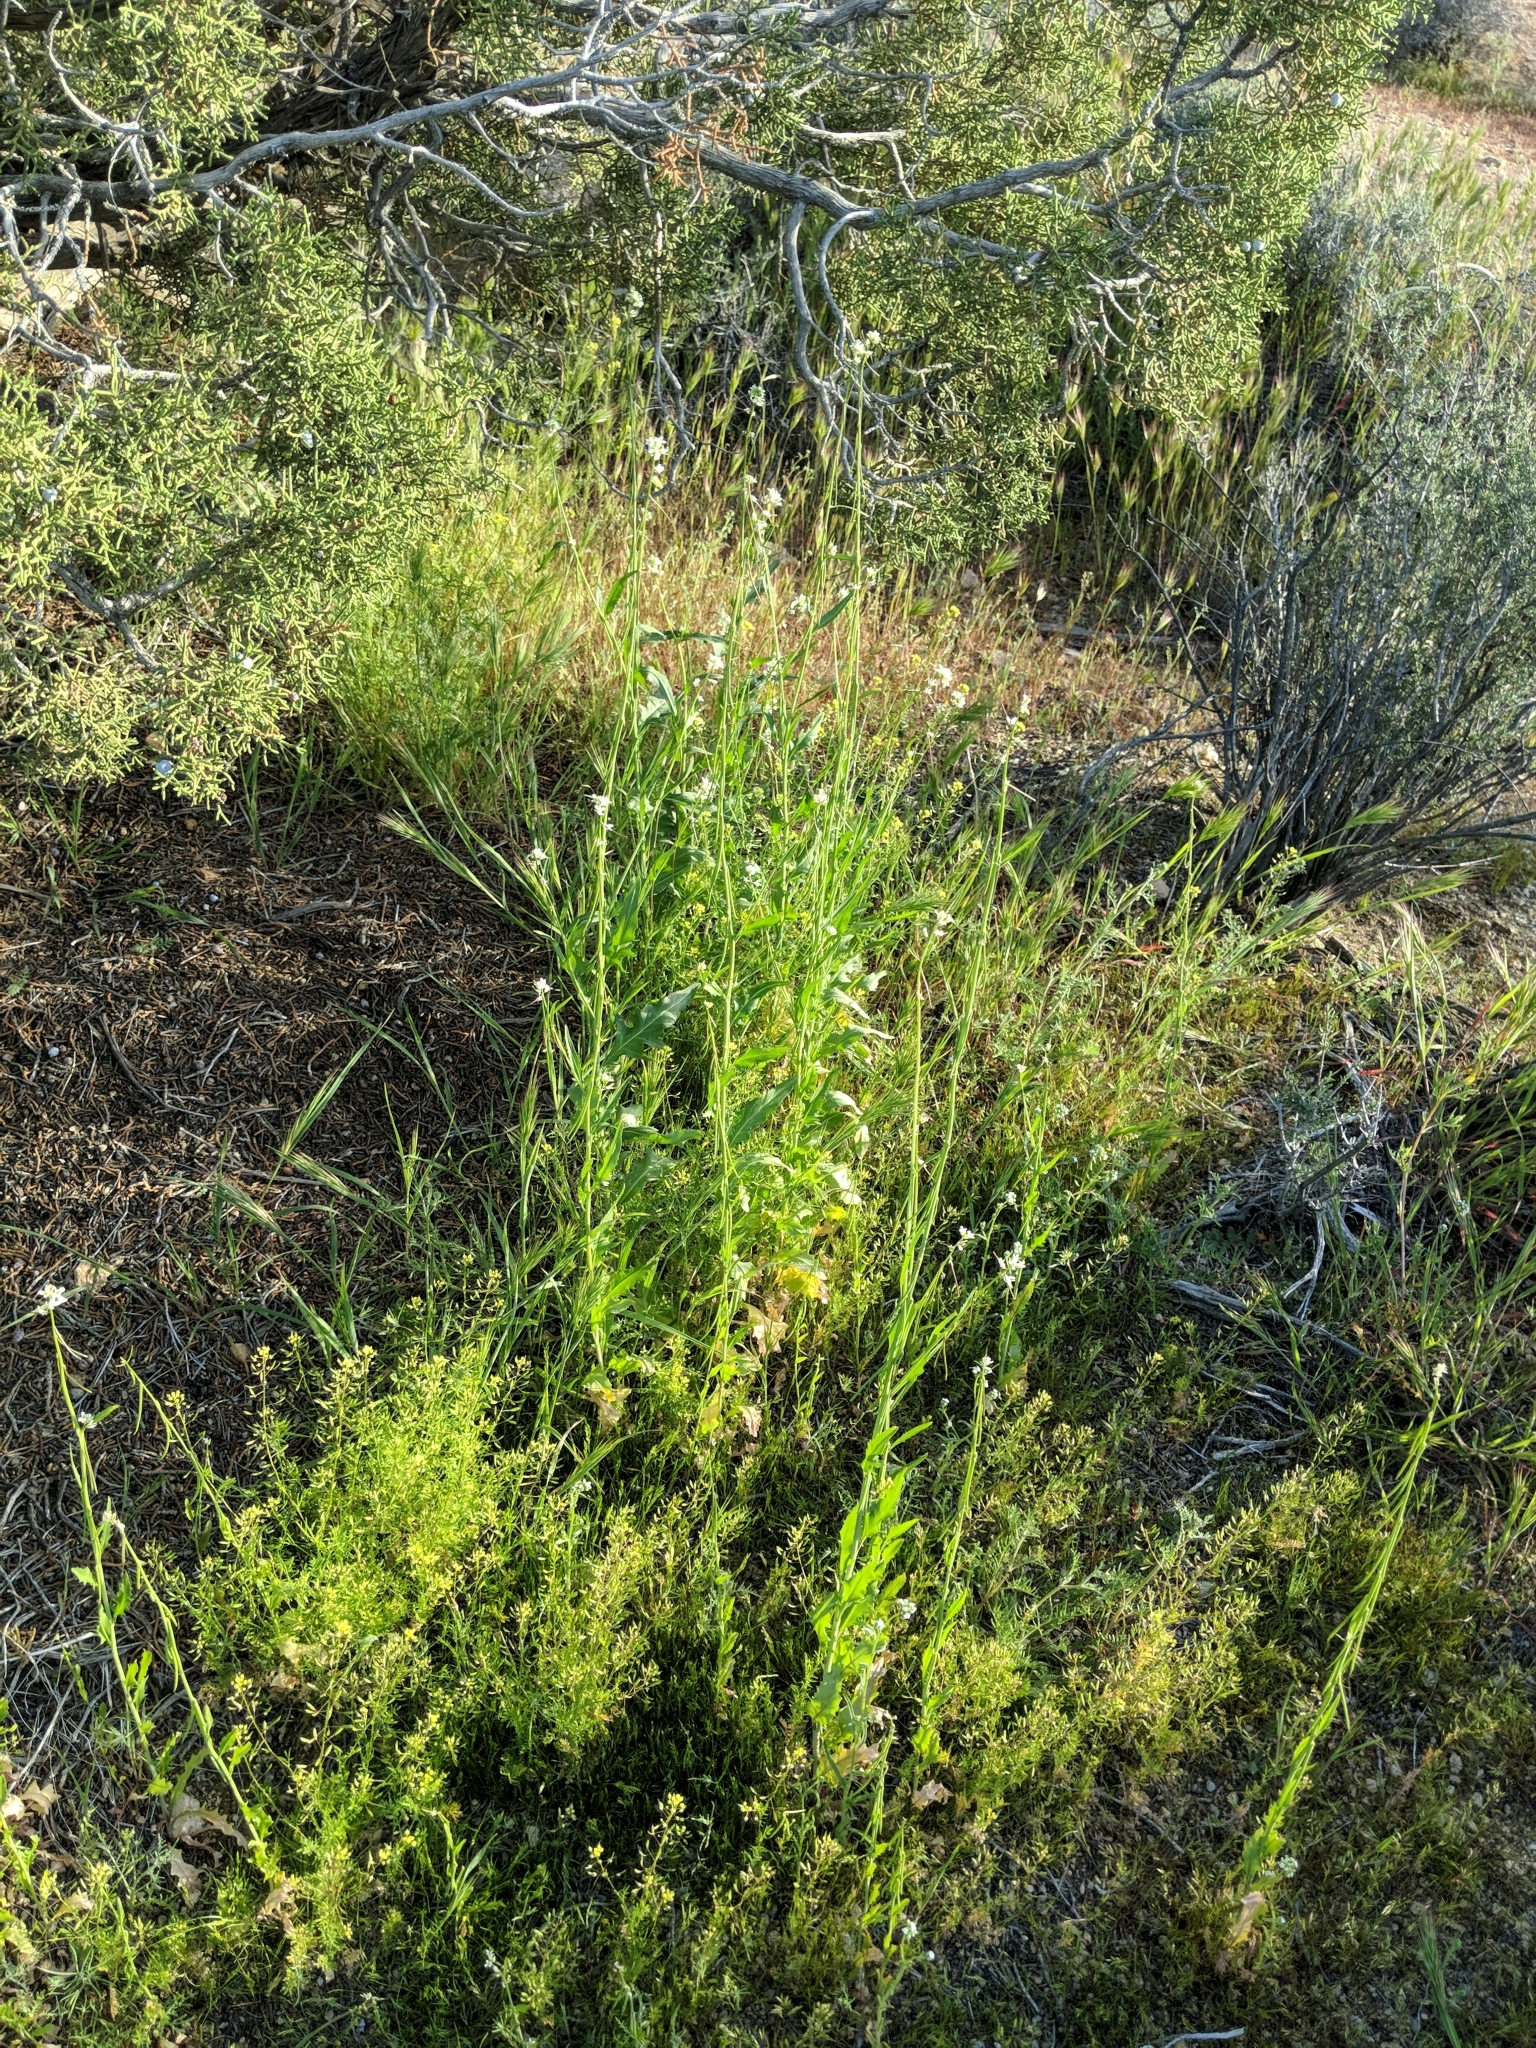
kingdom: Plantae
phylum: Tracheophyta
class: Magnoliopsida
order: Brassicales
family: Brassicaceae
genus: Streptanthus
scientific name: Streptanthus lasiophyllus
